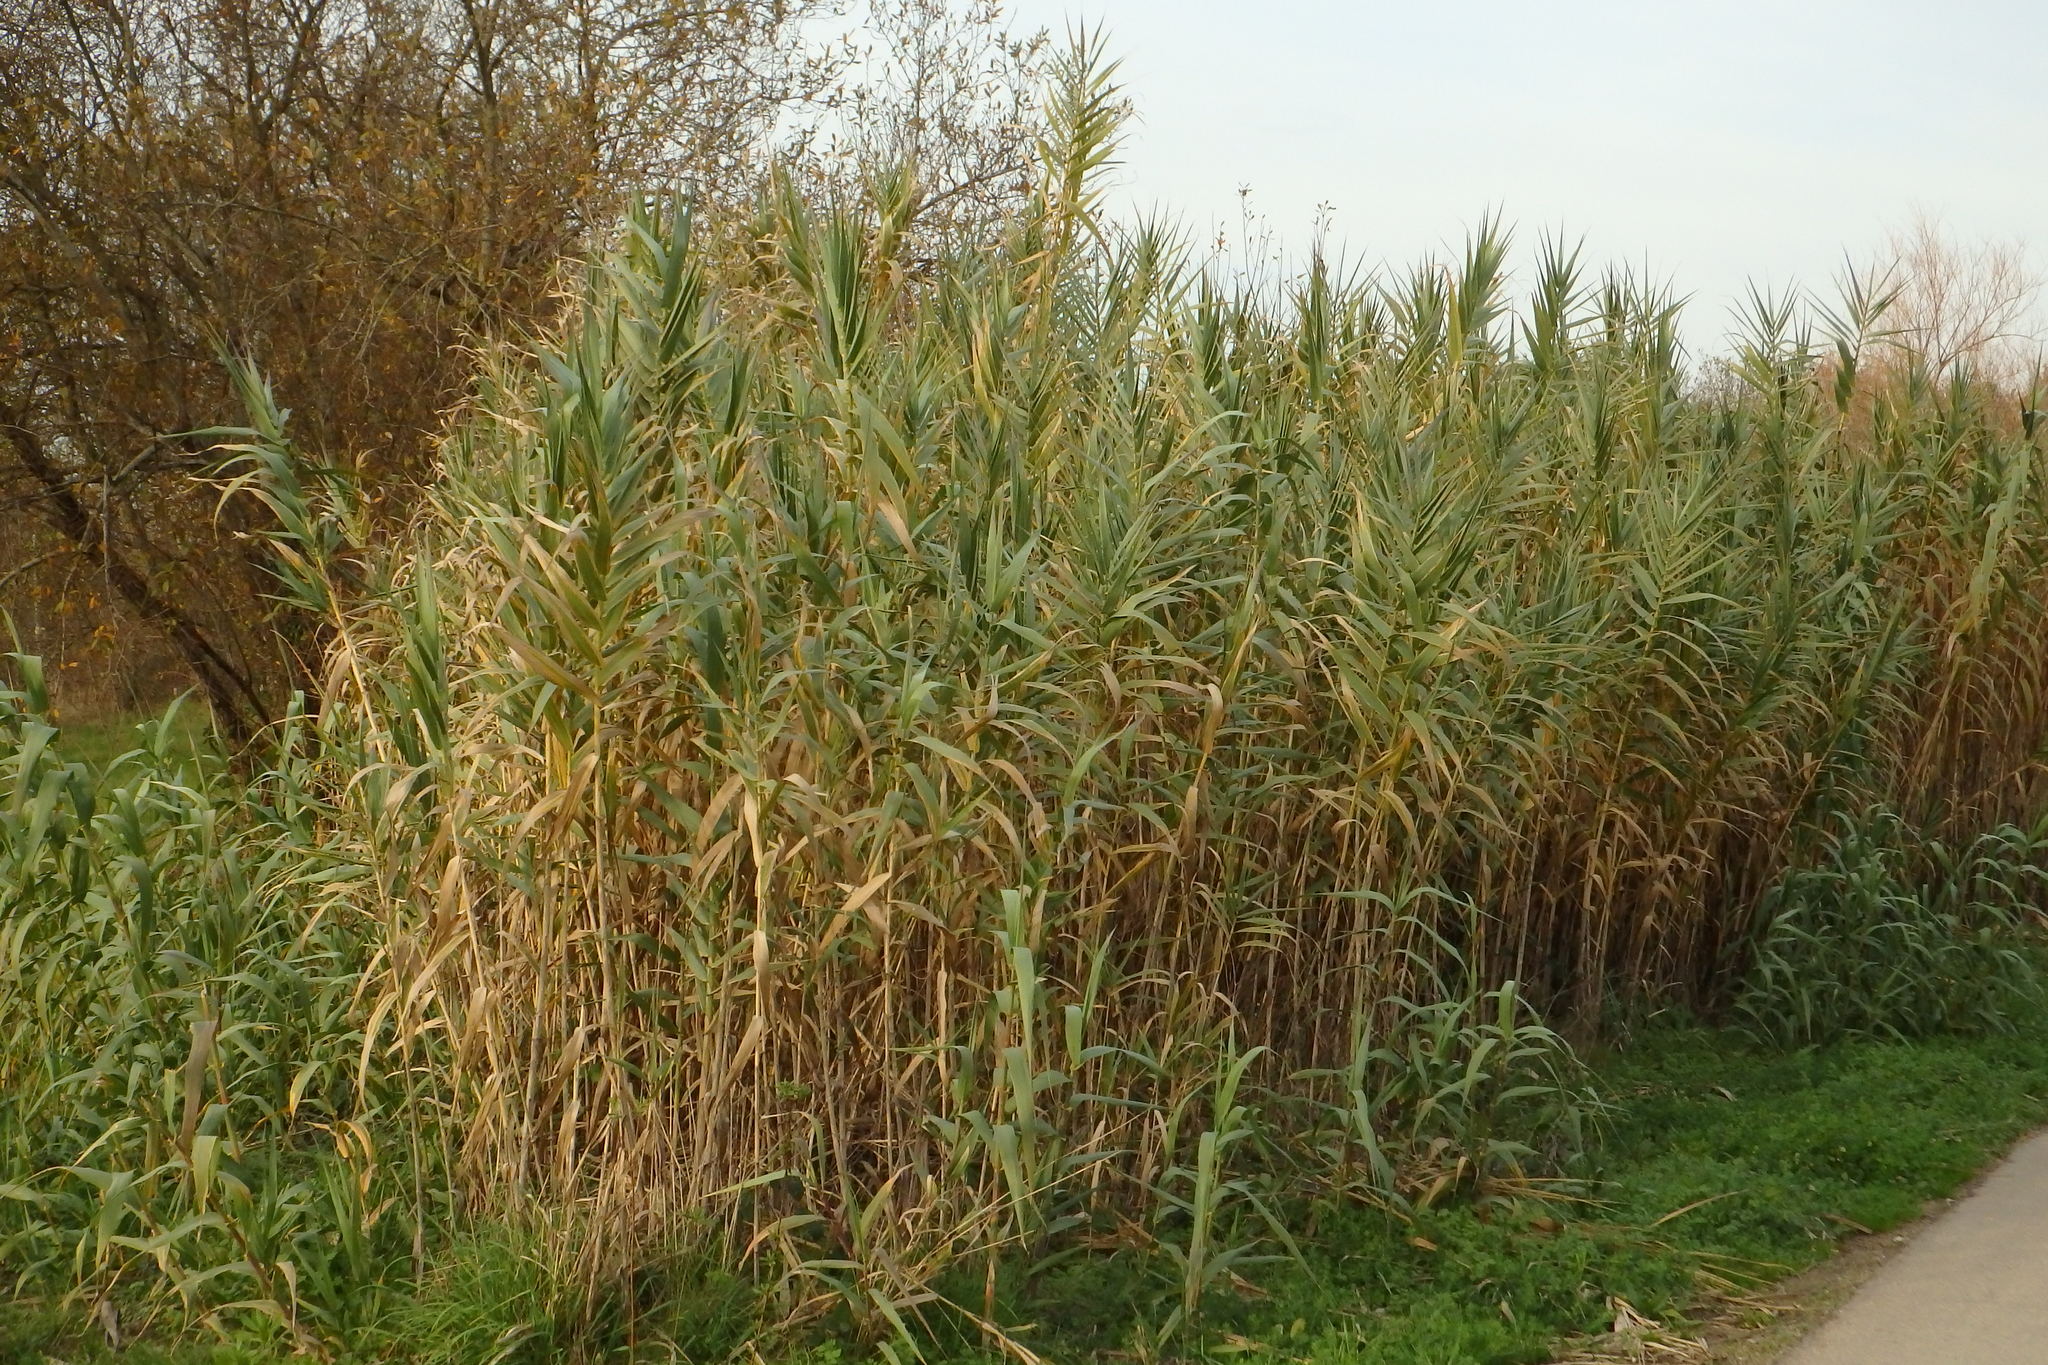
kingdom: Plantae
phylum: Tracheophyta
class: Liliopsida
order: Poales
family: Poaceae
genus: Arundo
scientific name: Arundo donax
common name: Giant reed
